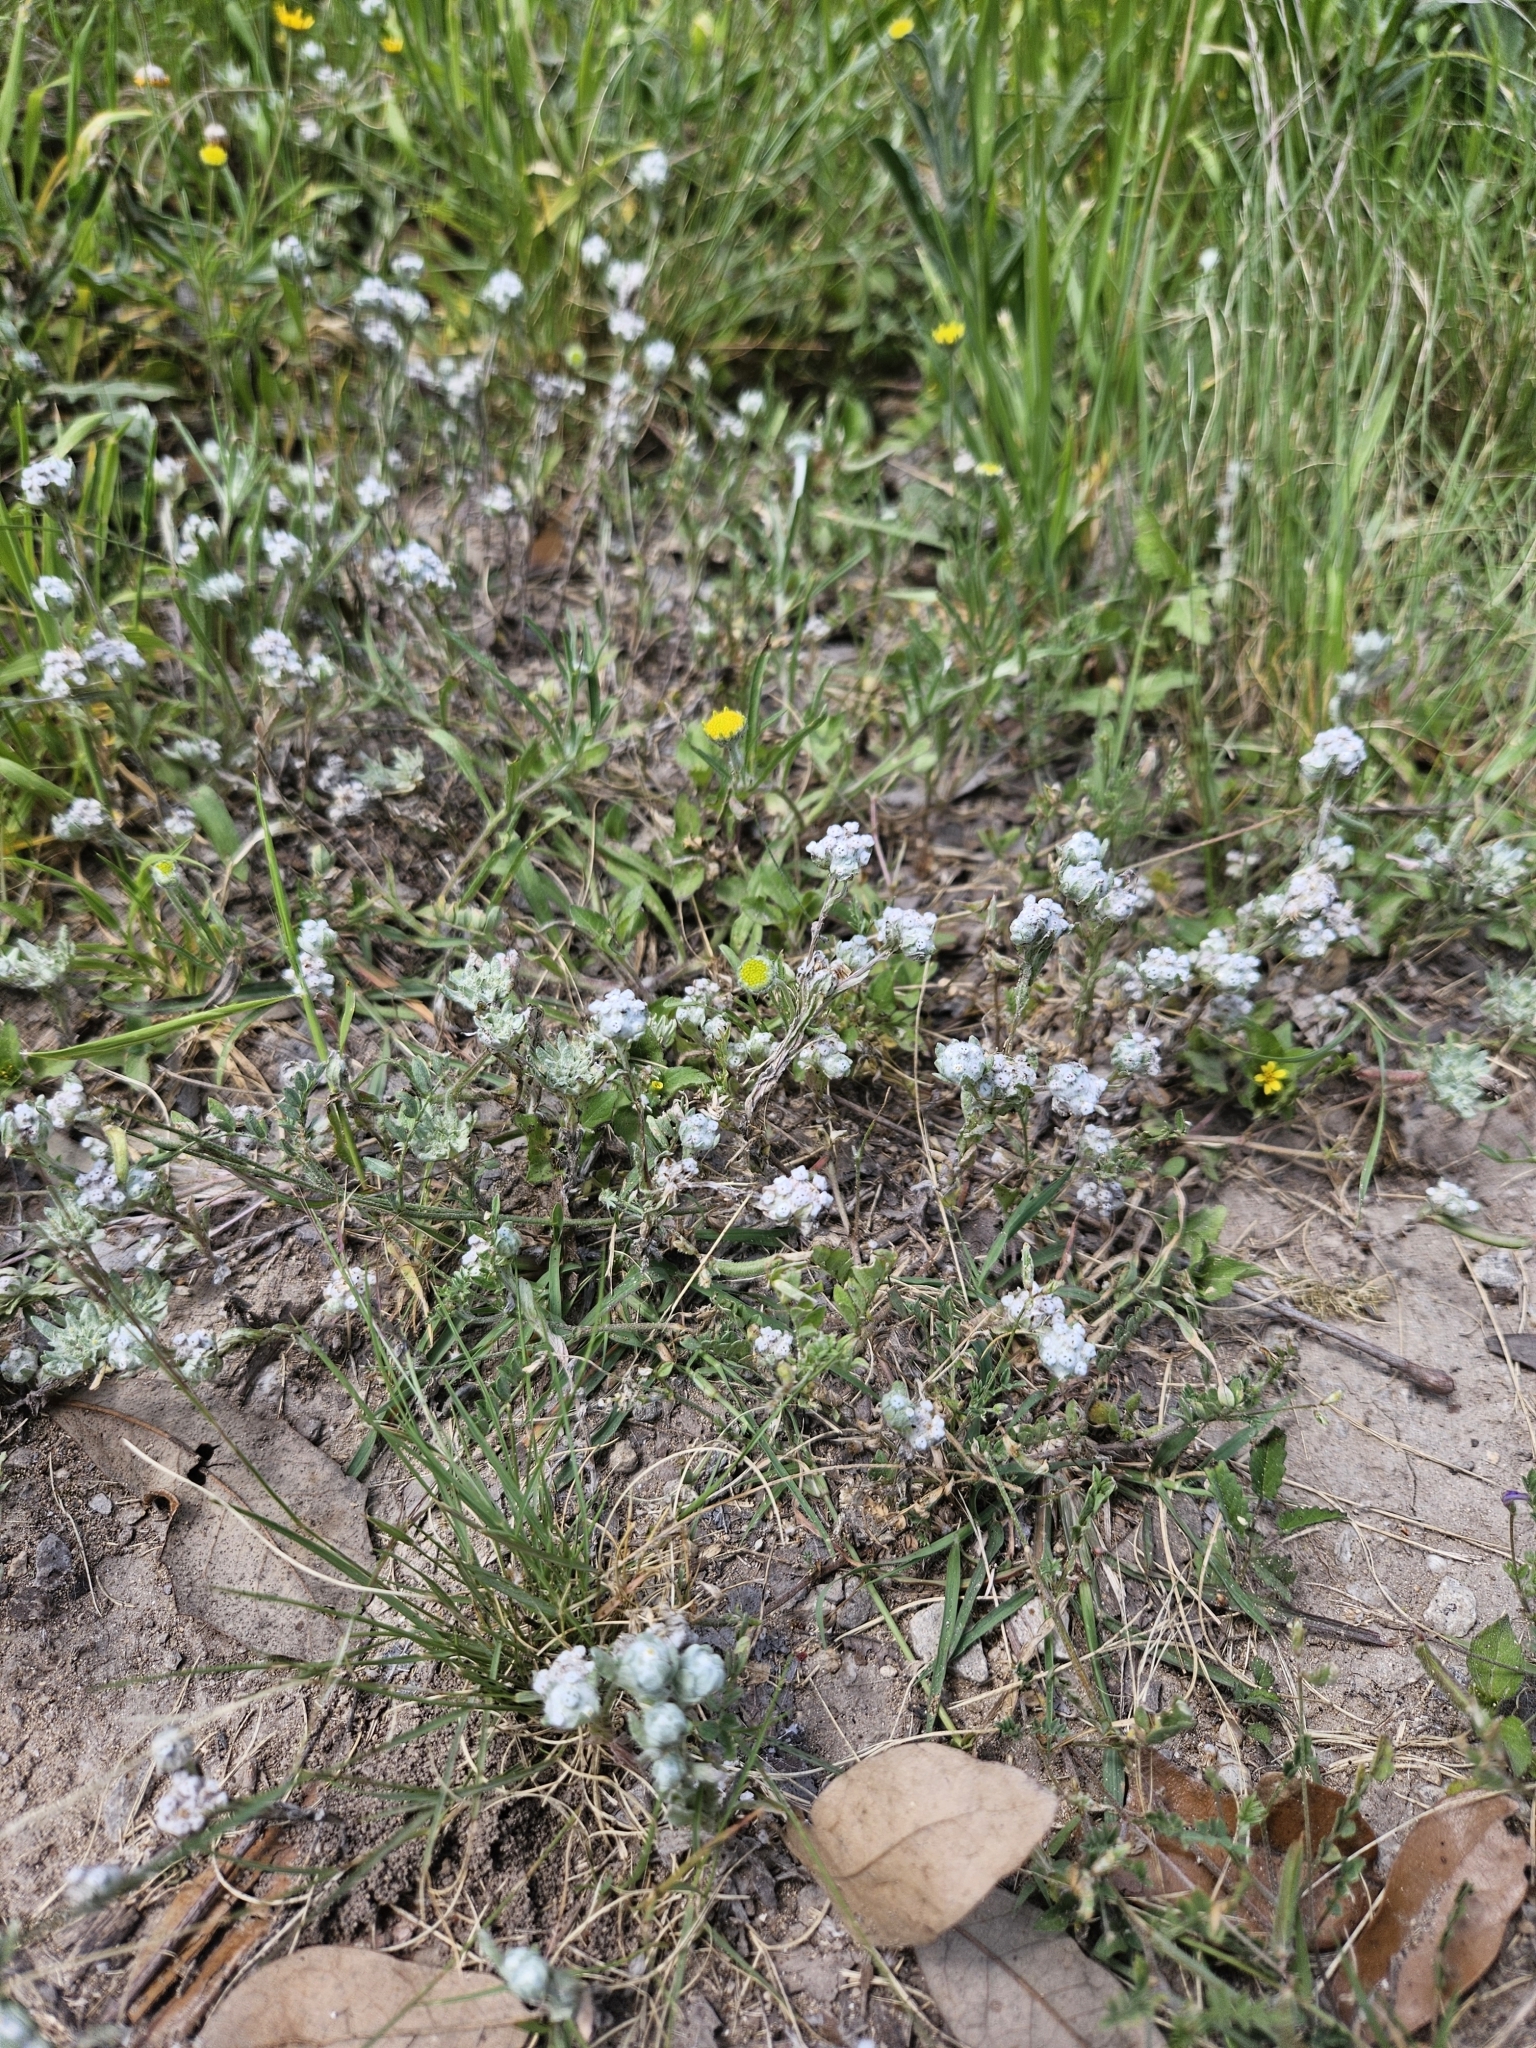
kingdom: Plantae
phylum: Tracheophyta
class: Magnoliopsida
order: Asterales
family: Asteraceae
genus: Diaperia
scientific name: Diaperia verna
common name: Many-stem rabbit-tobacco
